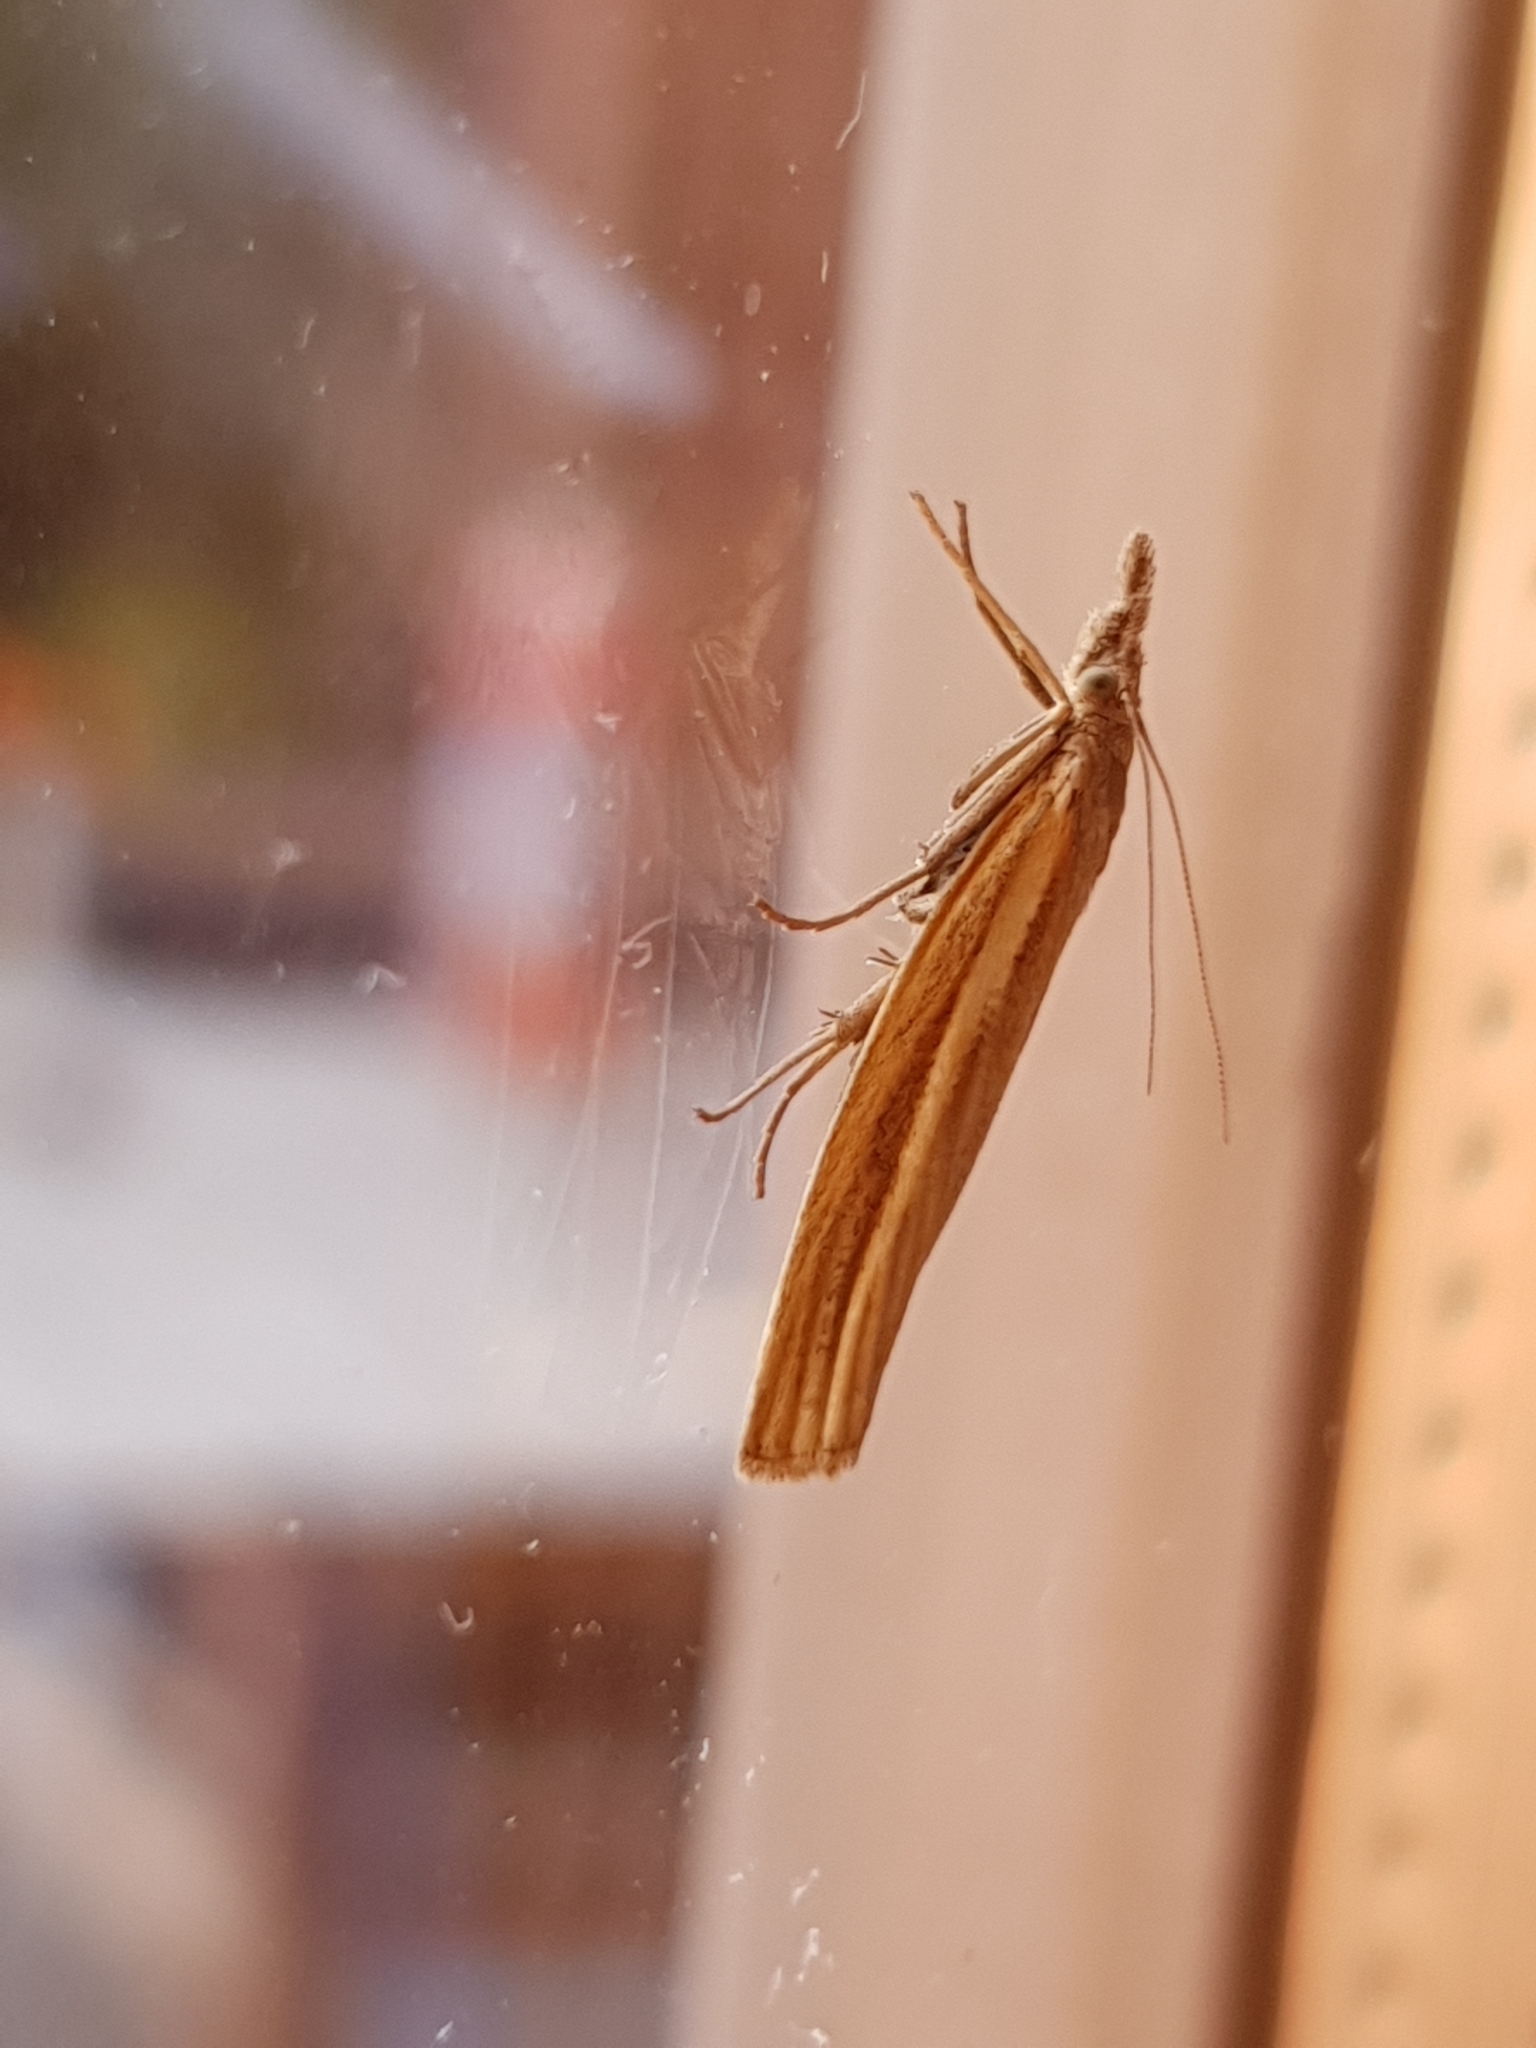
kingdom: Animalia
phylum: Arthropoda
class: Insecta
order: Lepidoptera
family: Crambidae
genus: Agriphila
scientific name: Agriphila tristellus
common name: Common grass-veneer
